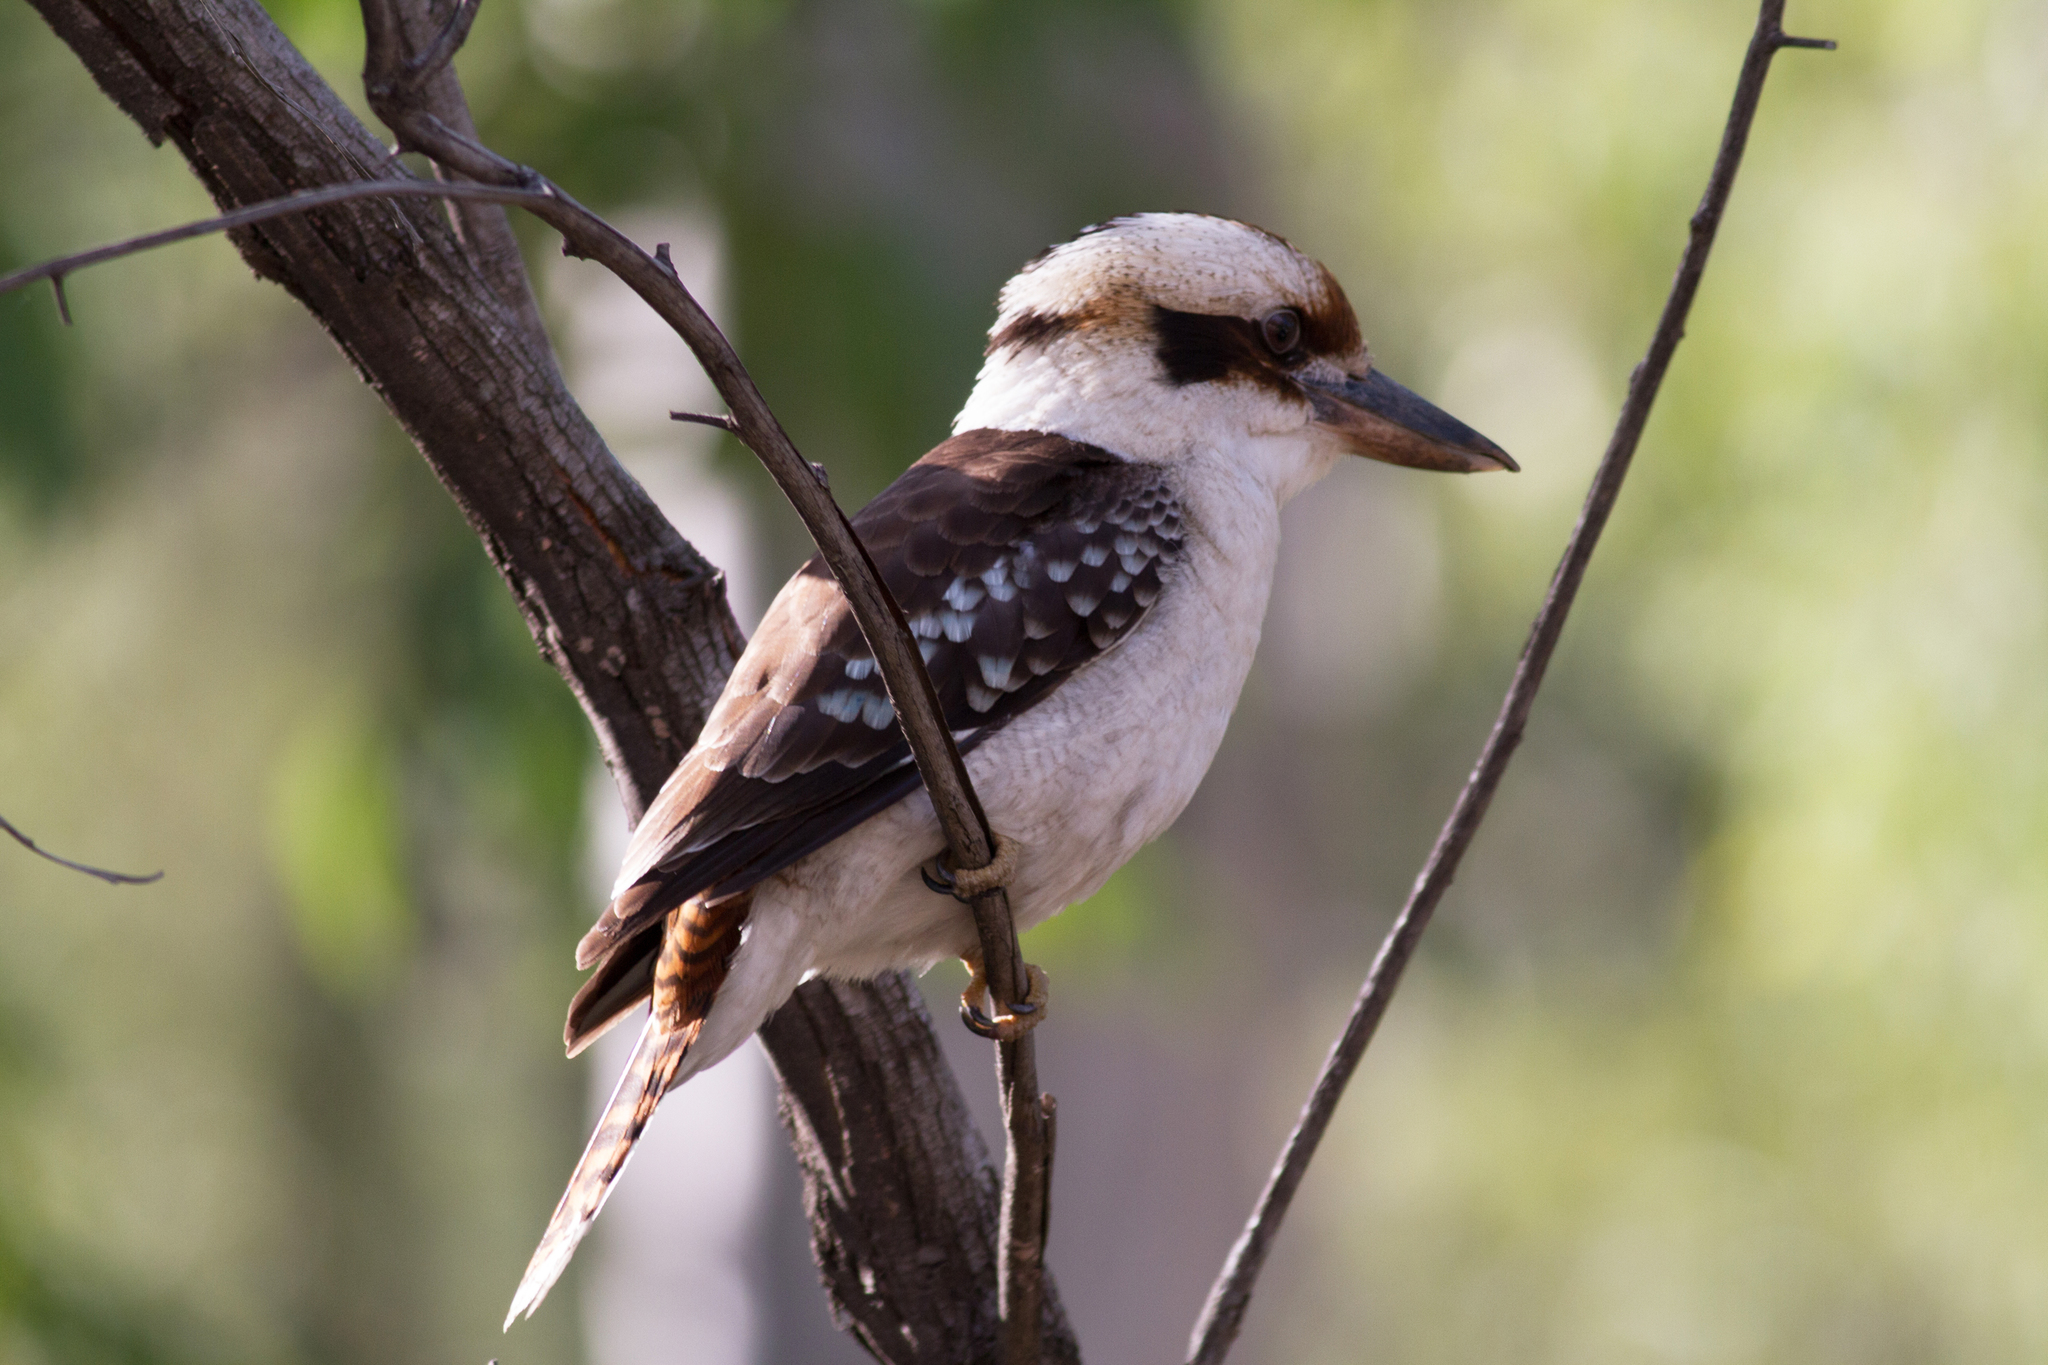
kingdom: Animalia
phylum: Chordata
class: Aves
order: Coraciiformes
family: Alcedinidae
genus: Dacelo
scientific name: Dacelo novaeguineae
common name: Laughing kookaburra
